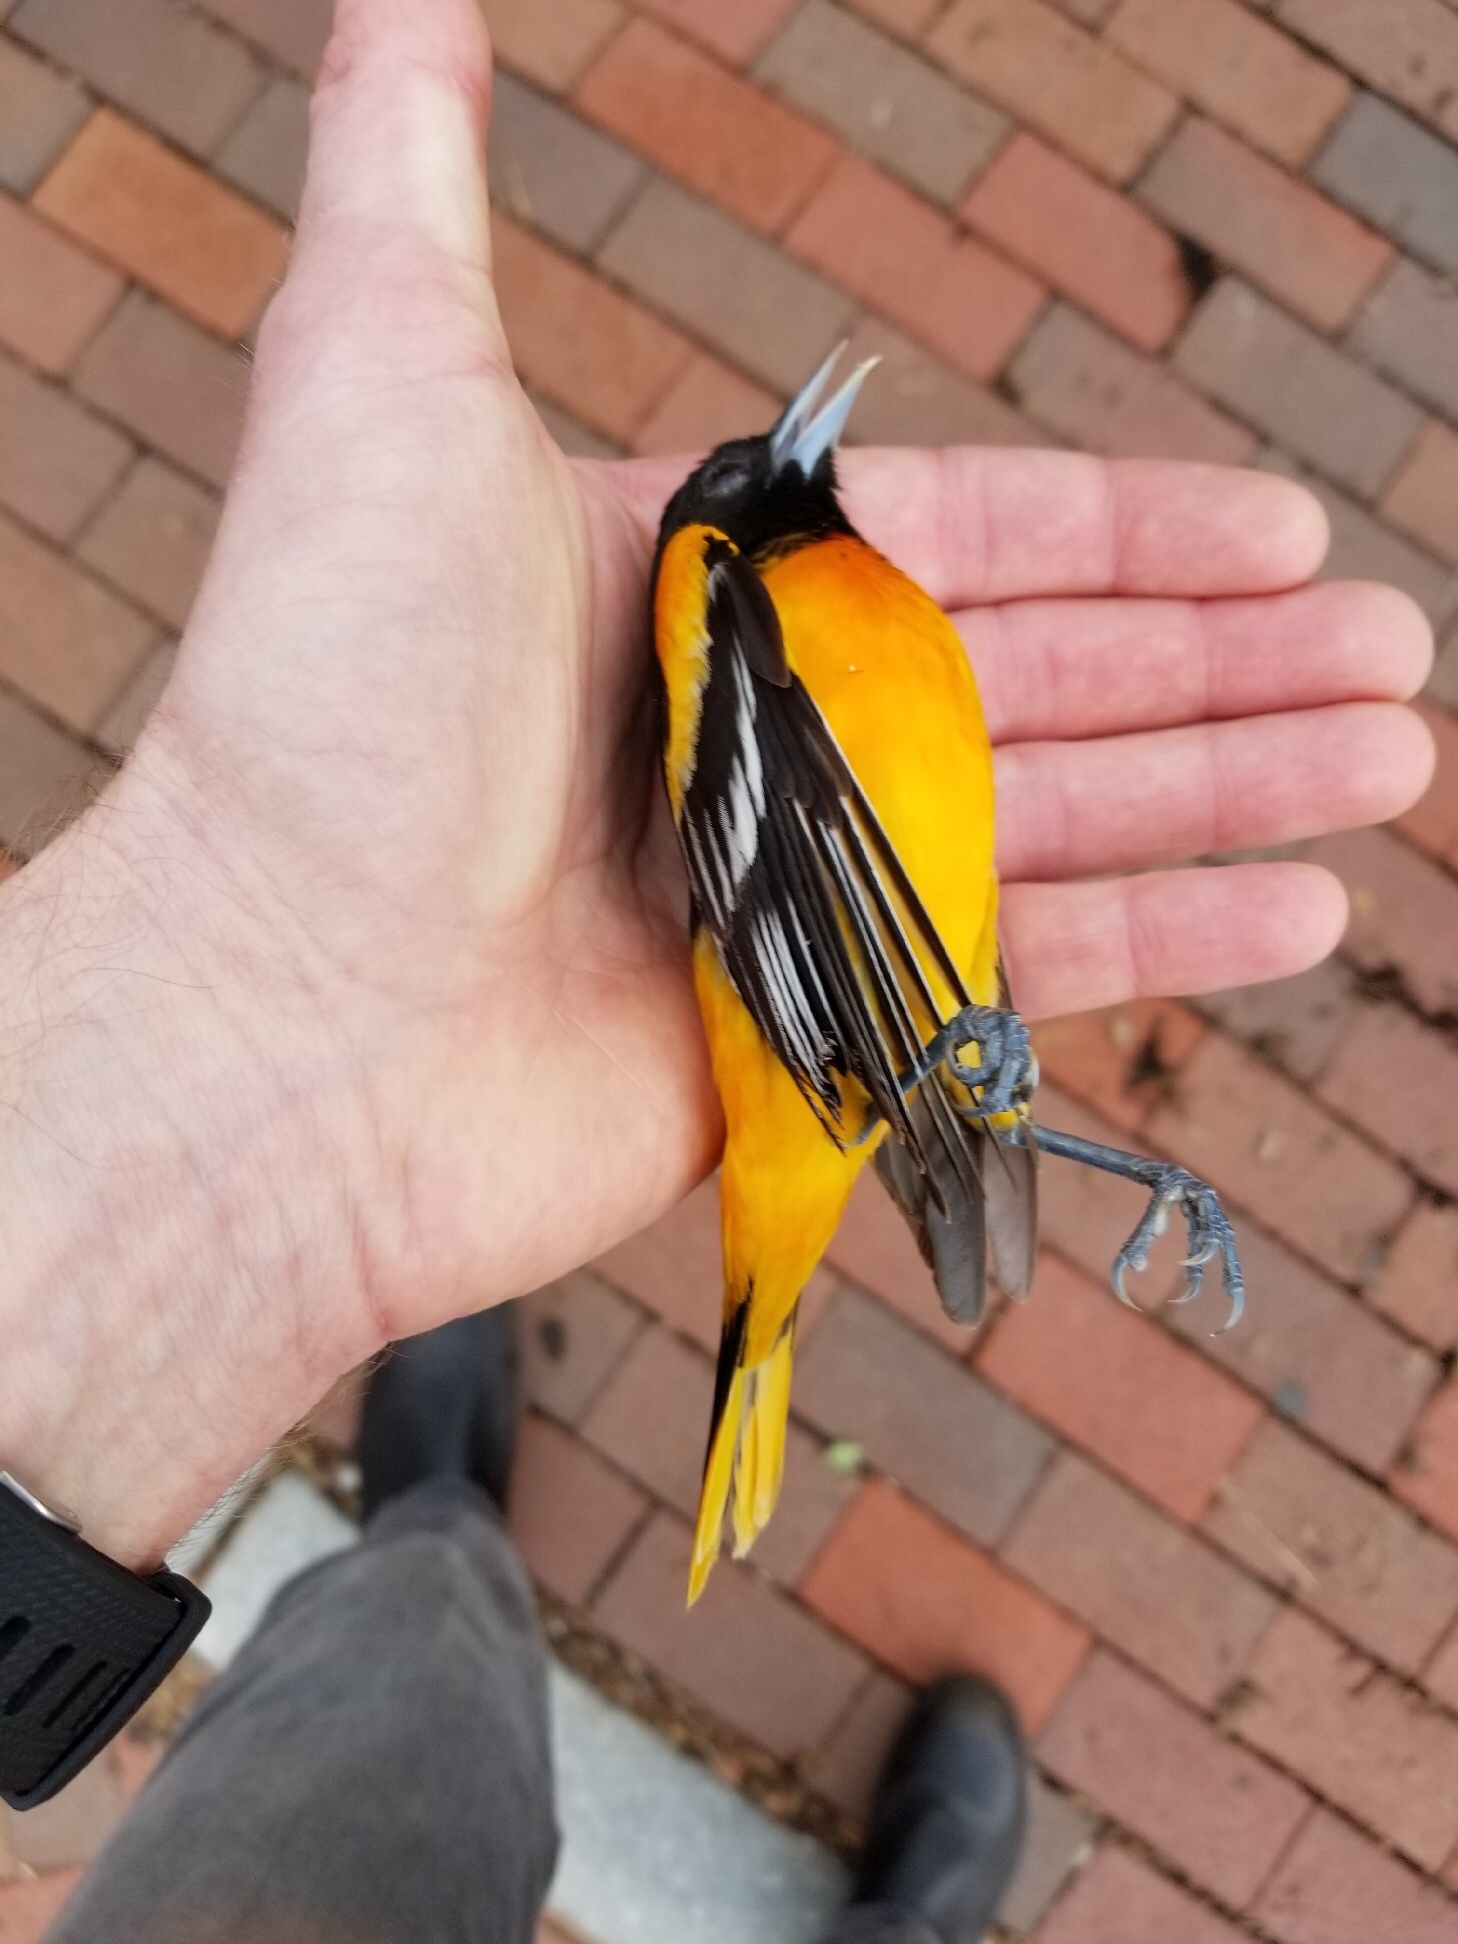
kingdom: Animalia
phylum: Chordata
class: Aves
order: Passeriformes
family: Icteridae
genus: Icterus
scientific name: Icterus galbula
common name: Baltimore oriole
